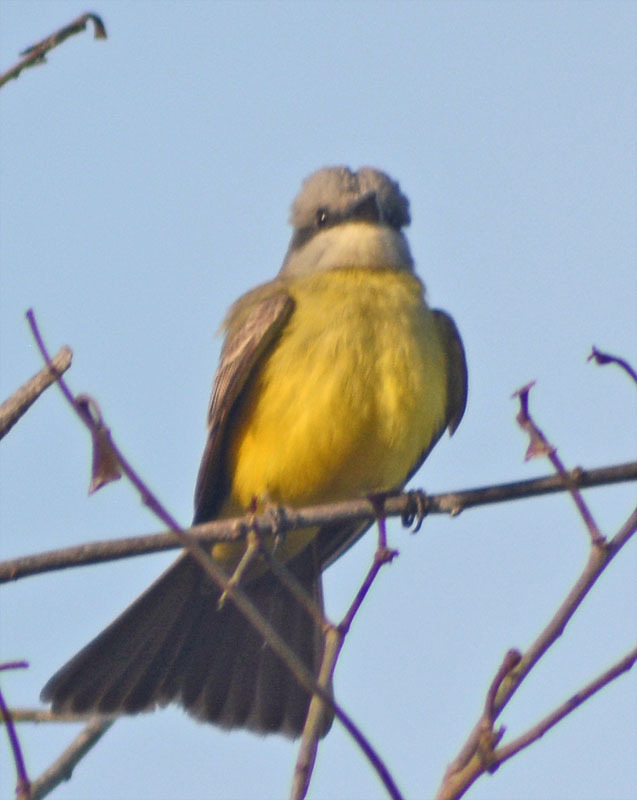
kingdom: Animalia
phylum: Chordata
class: Aves
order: Passeriformes
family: Tyrannidae
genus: Tyrannus
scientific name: Tyrannus melancholicus
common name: Tropical kingbird
